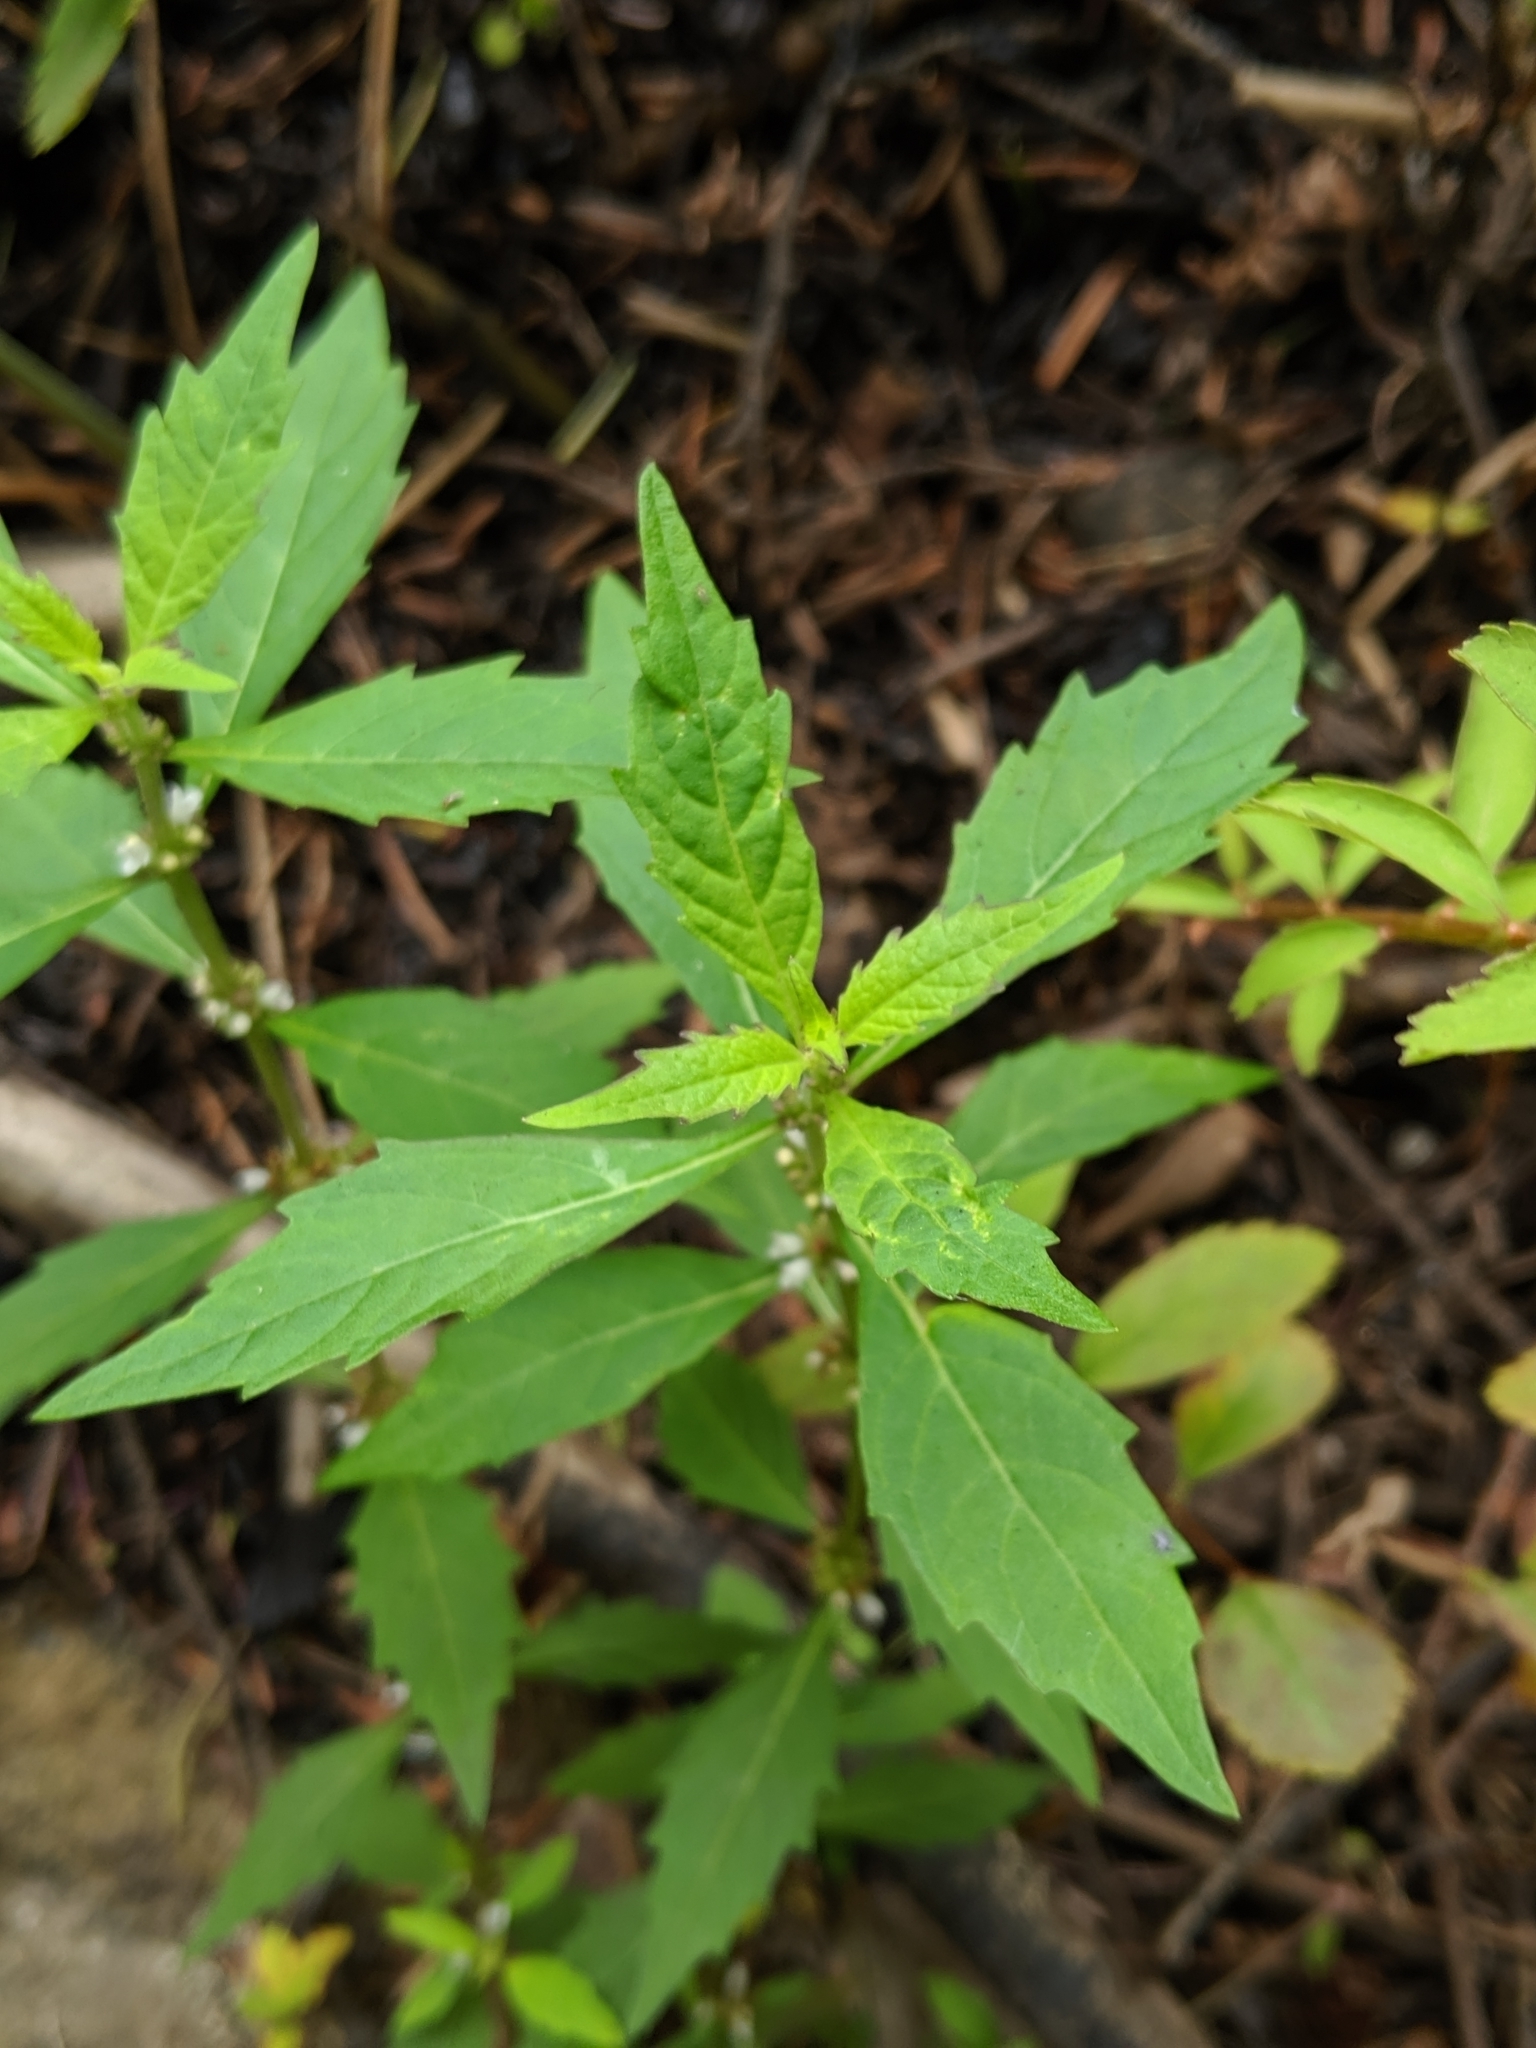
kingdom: Plantae
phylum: Tracheophyta
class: Magnoliopsida
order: Lamiales
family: Lamiaceae
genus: Lycopus
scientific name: Lycopus uniflorus
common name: Northern bugleweed
